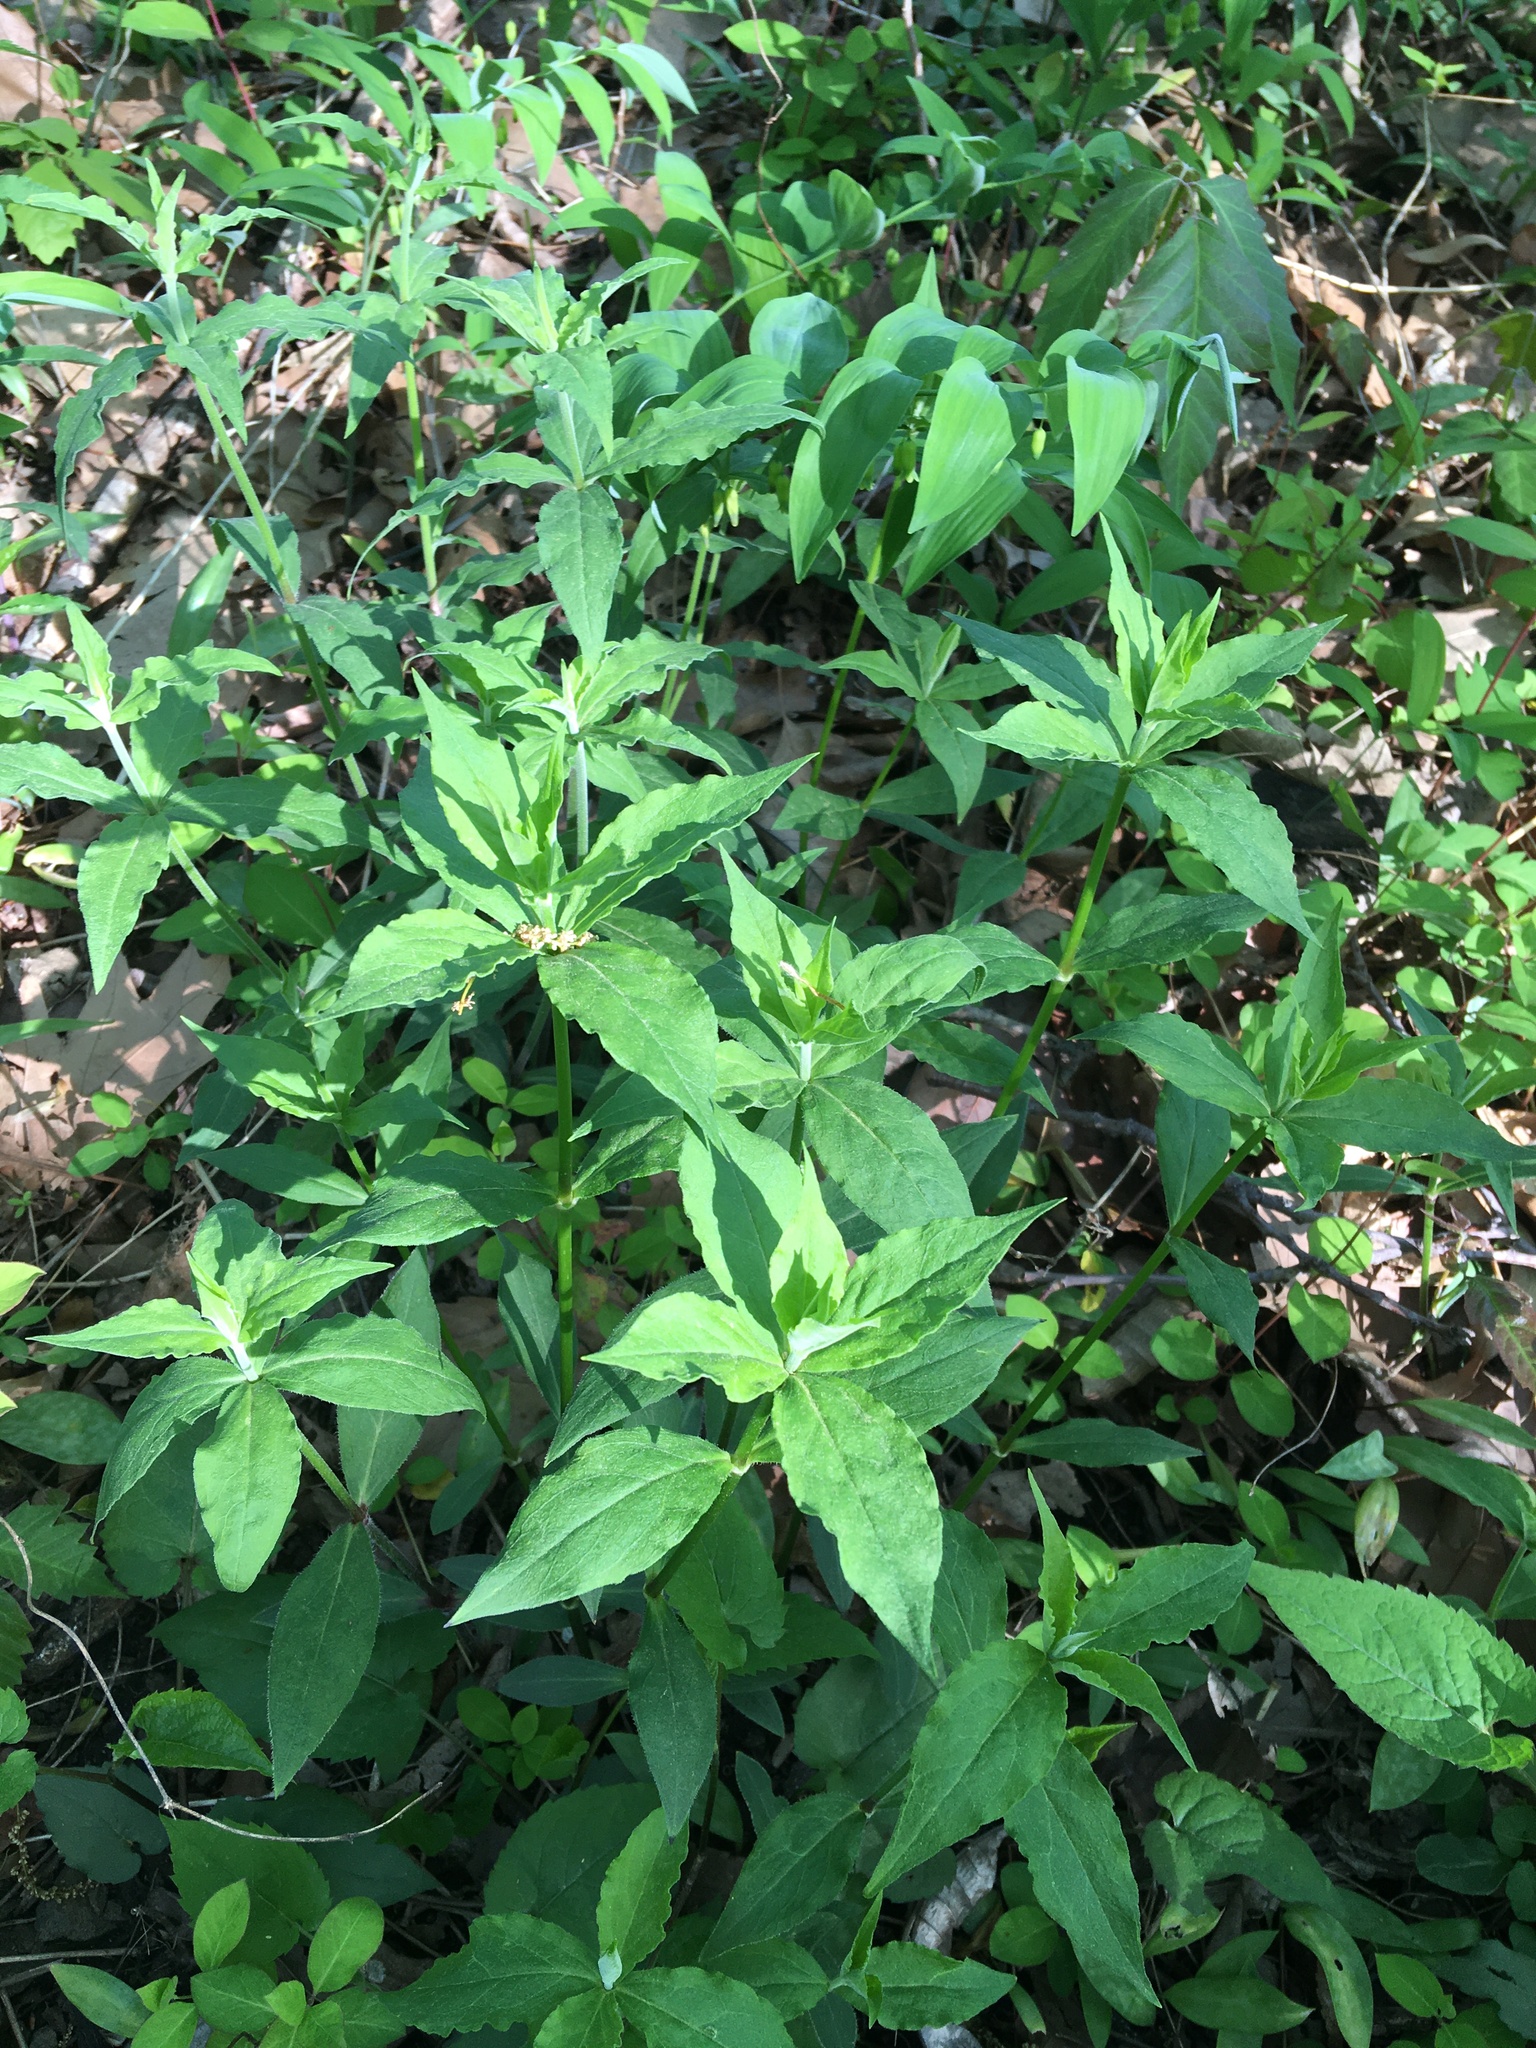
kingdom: Plantae
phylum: Tracheophyta
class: Magnoliopsida
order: Caryophyllales
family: Caryophyllaceae
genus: Silene
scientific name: Silene stellata
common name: Starry campion
